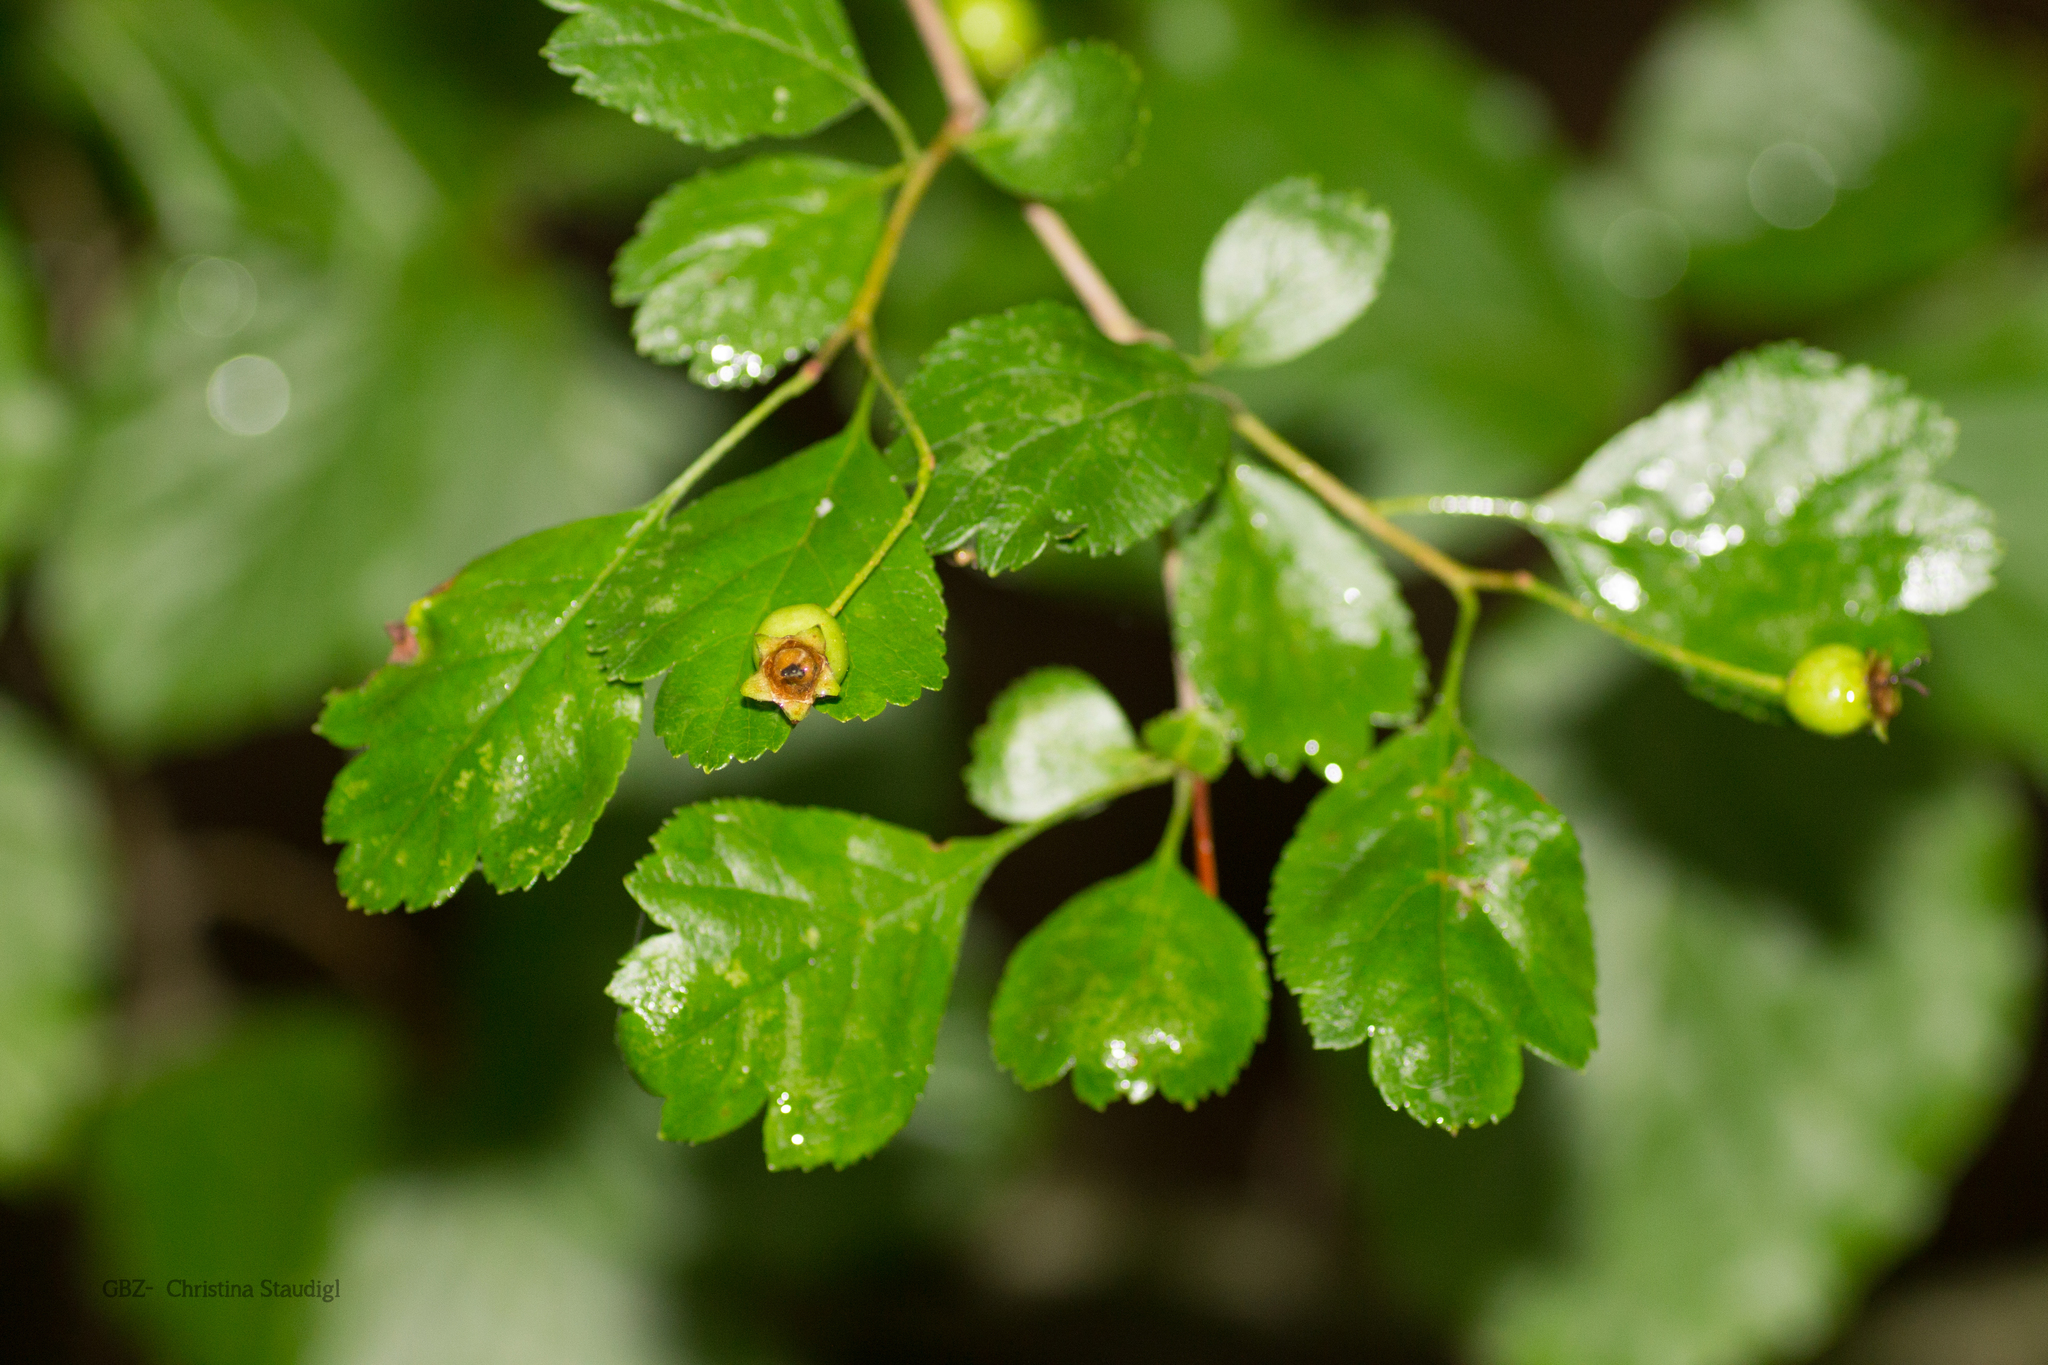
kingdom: Plantae
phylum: Tracheophyta
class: Magnoliopsida
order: Rosales
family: Rosaceae
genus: Crataegus
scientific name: Crataegus laevigata
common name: Midland hawthorn
